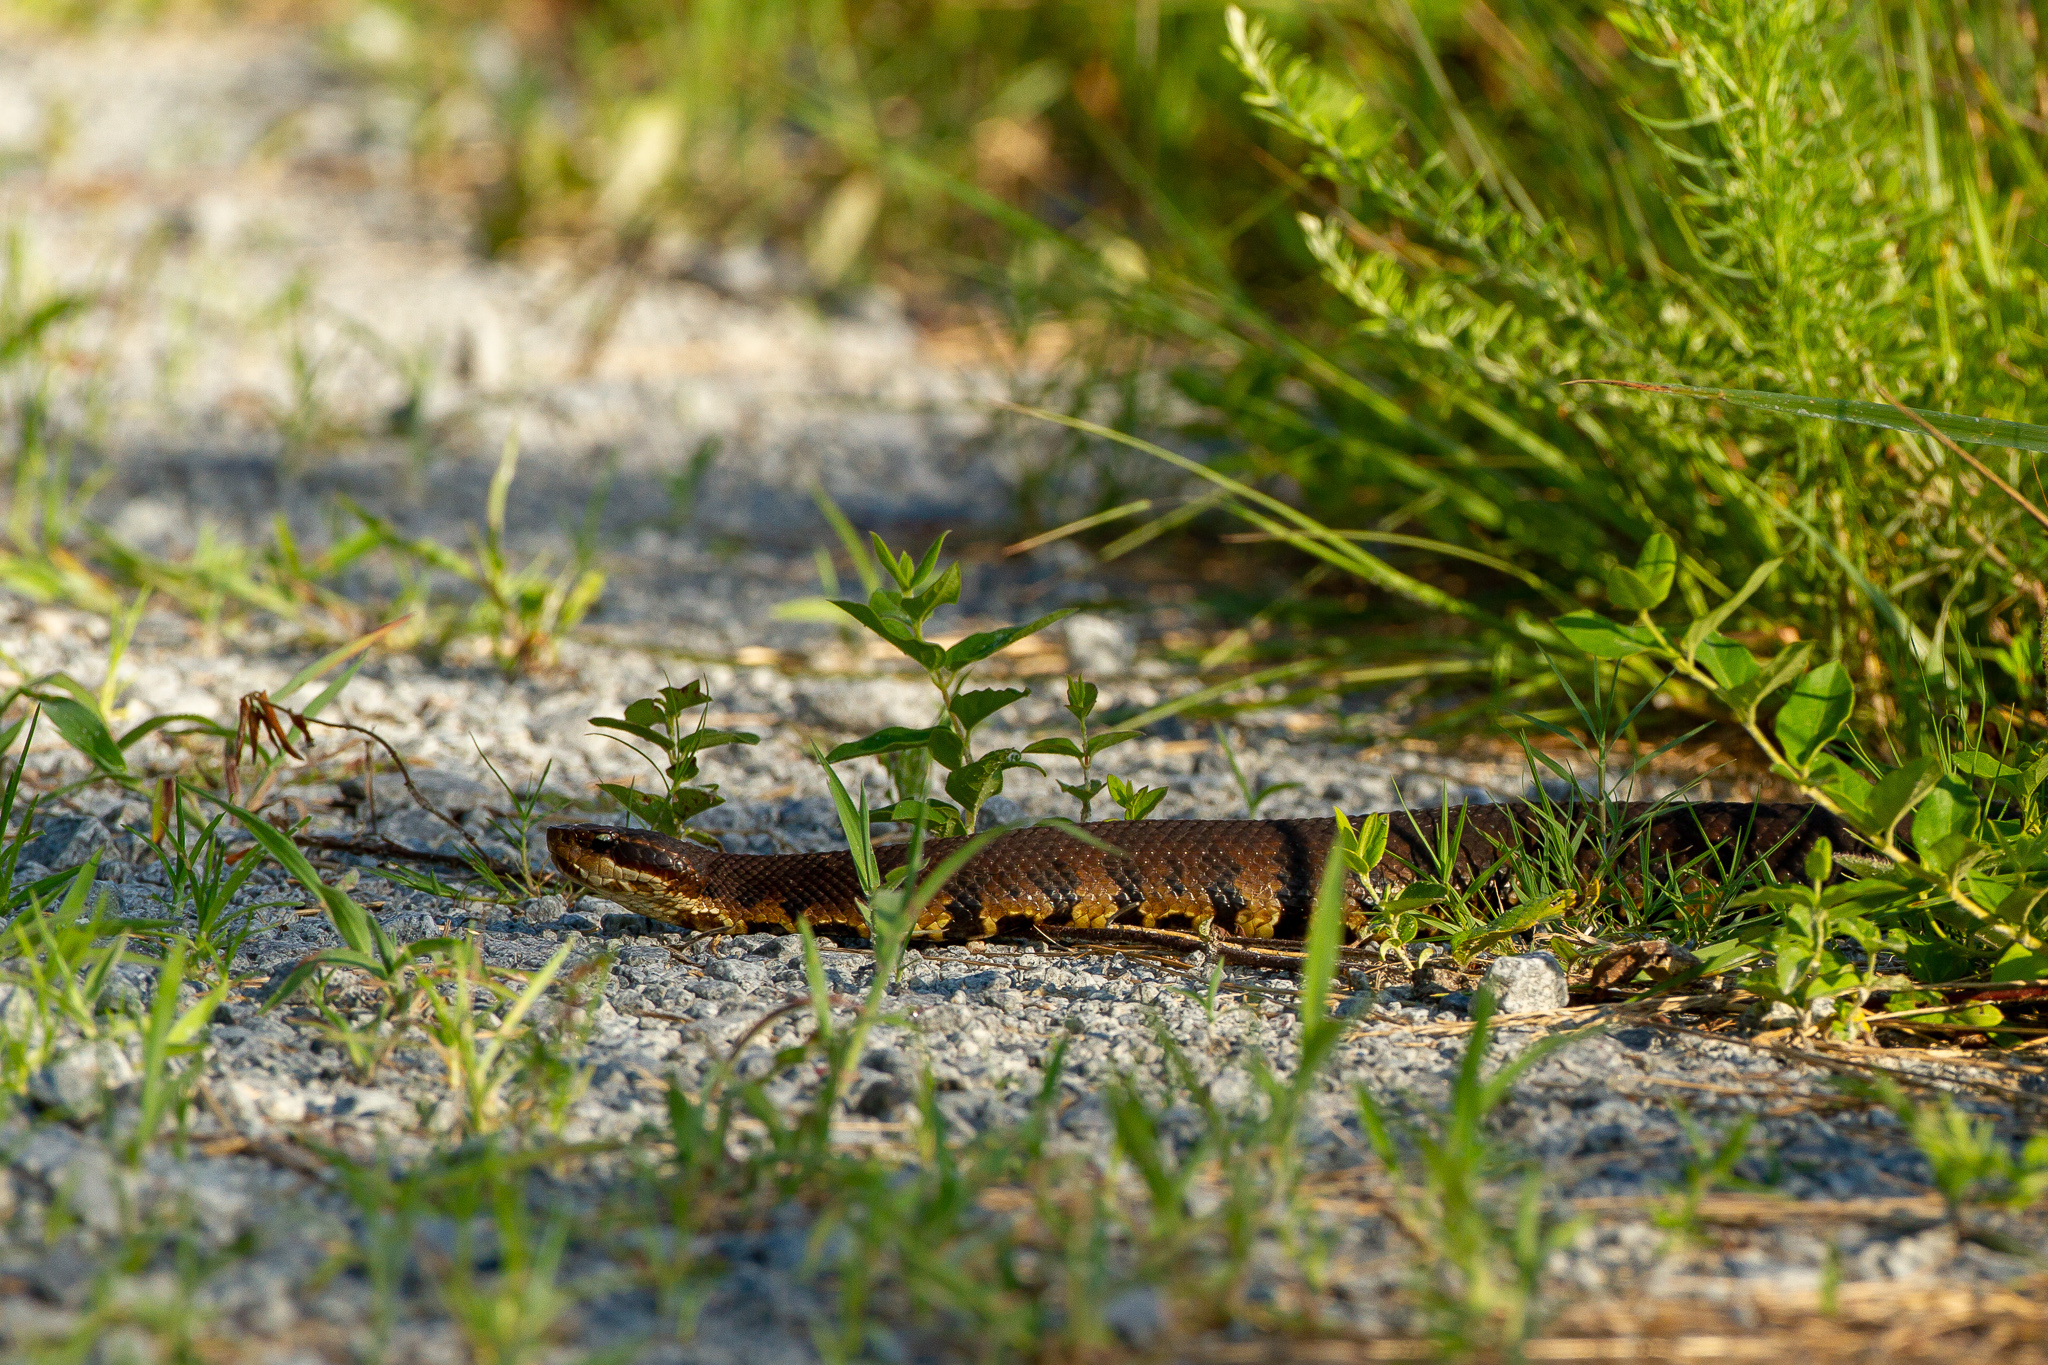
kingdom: Animalia
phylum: Chordata
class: Squamata
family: Viperidae
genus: Agkistrodon
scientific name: Agkistrodon piscivorus
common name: Cottonmouth
